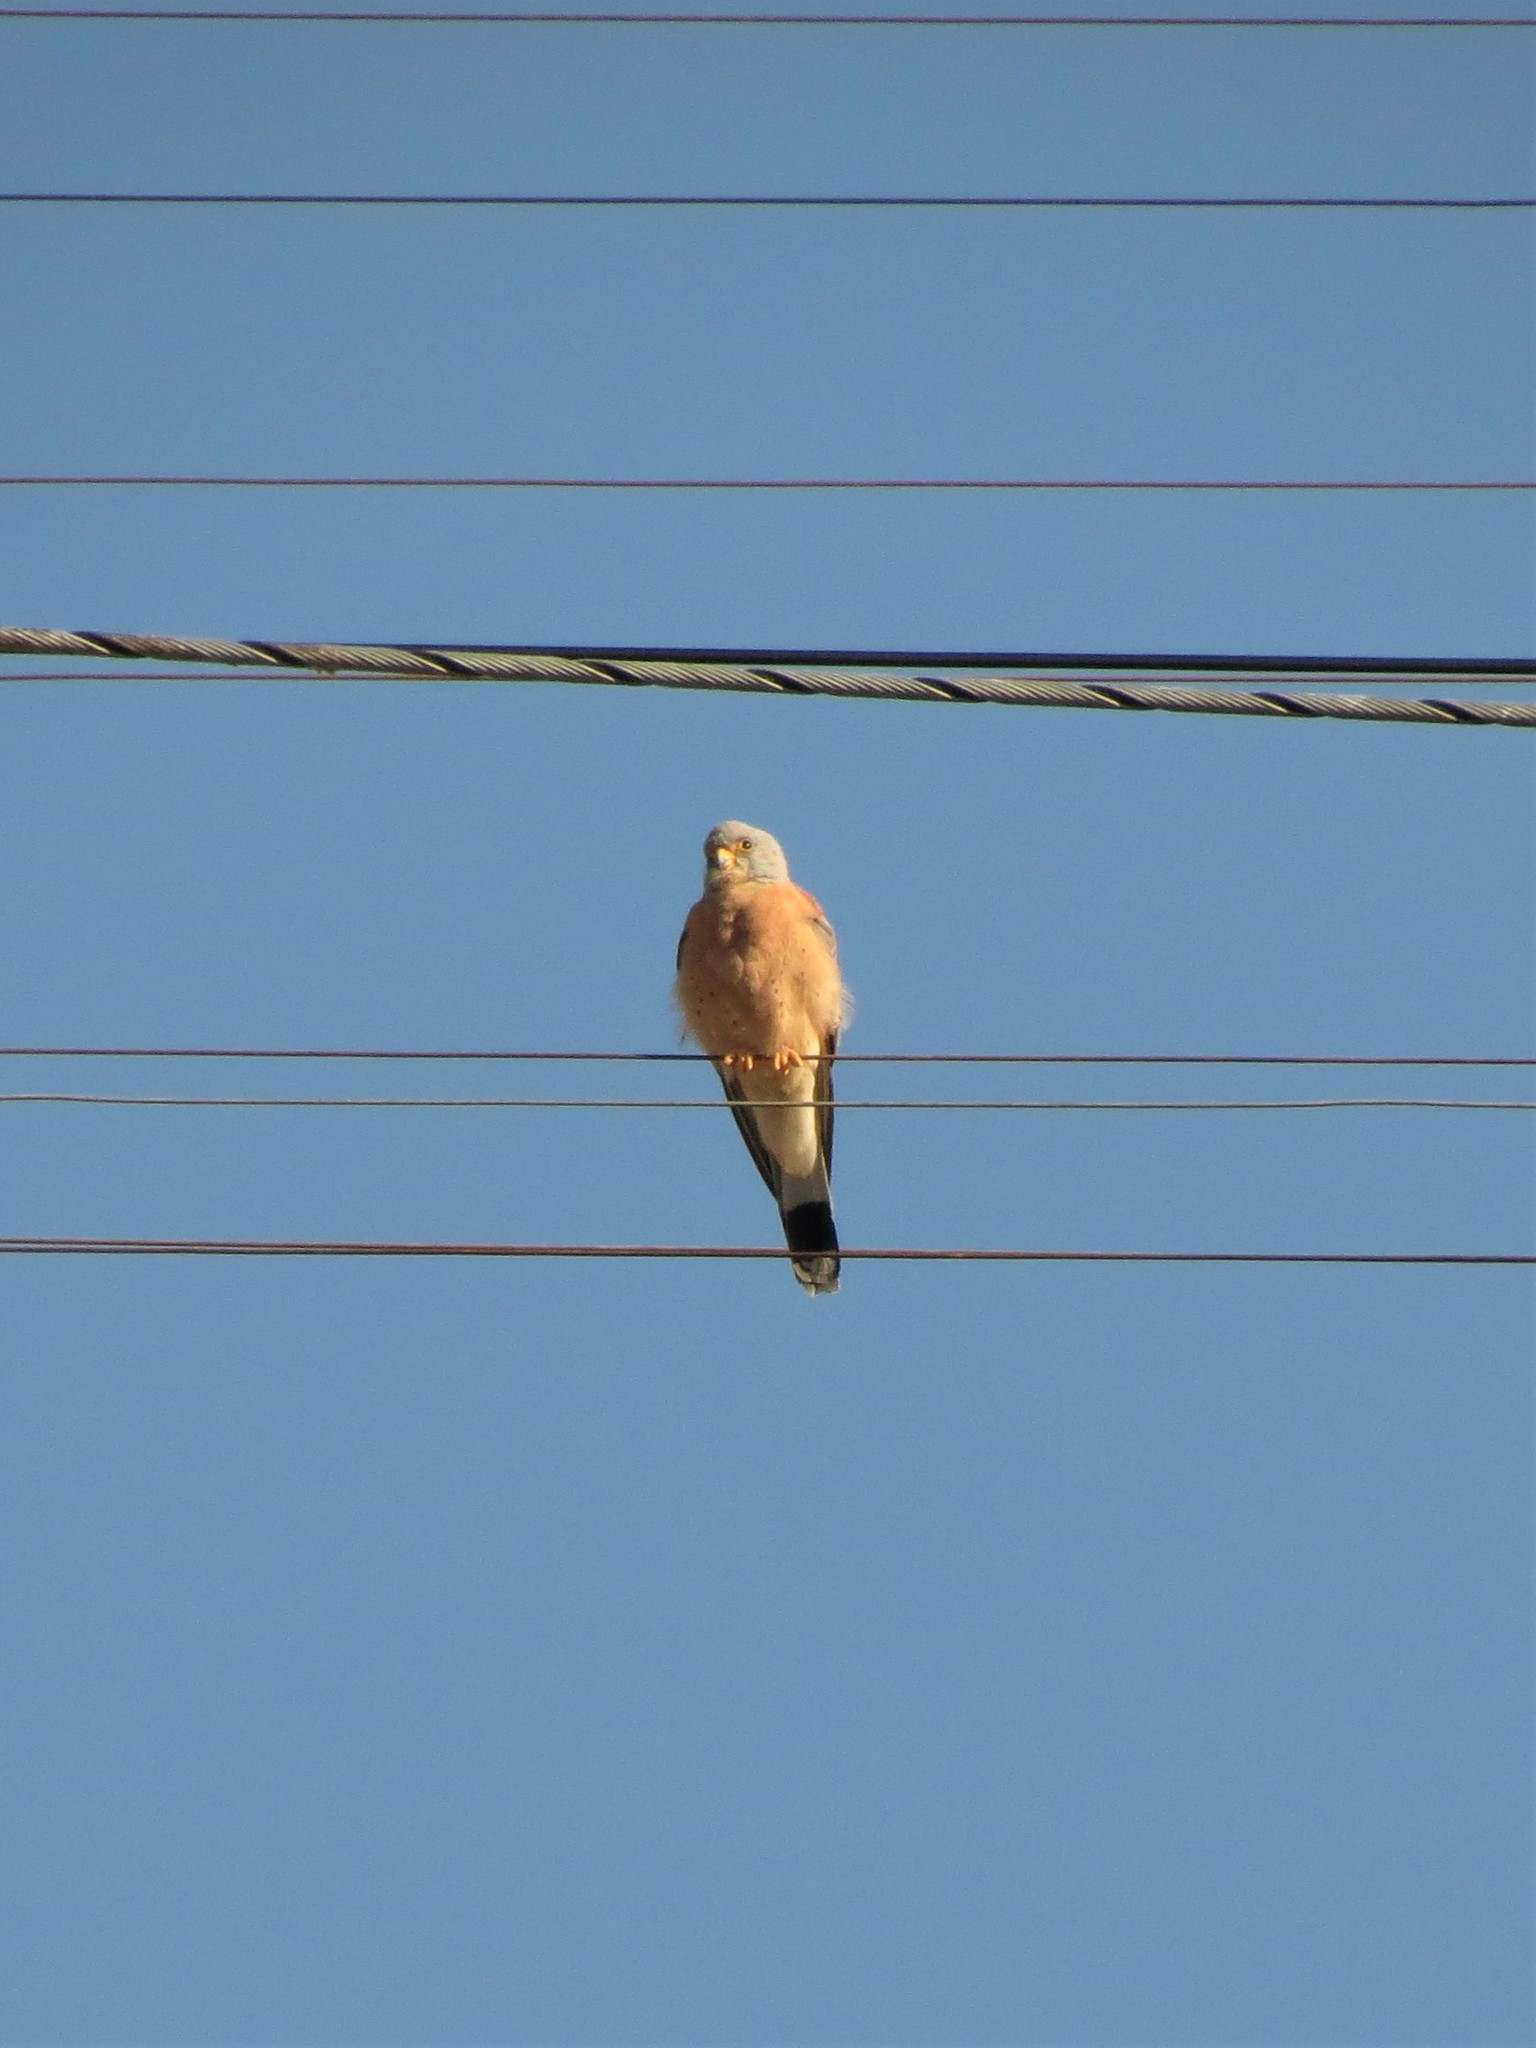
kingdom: Animalia
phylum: Chordata
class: Aves
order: Falconiformes
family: Falconidae
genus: Falco
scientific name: Falco naumanni
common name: Lesser kestrel
